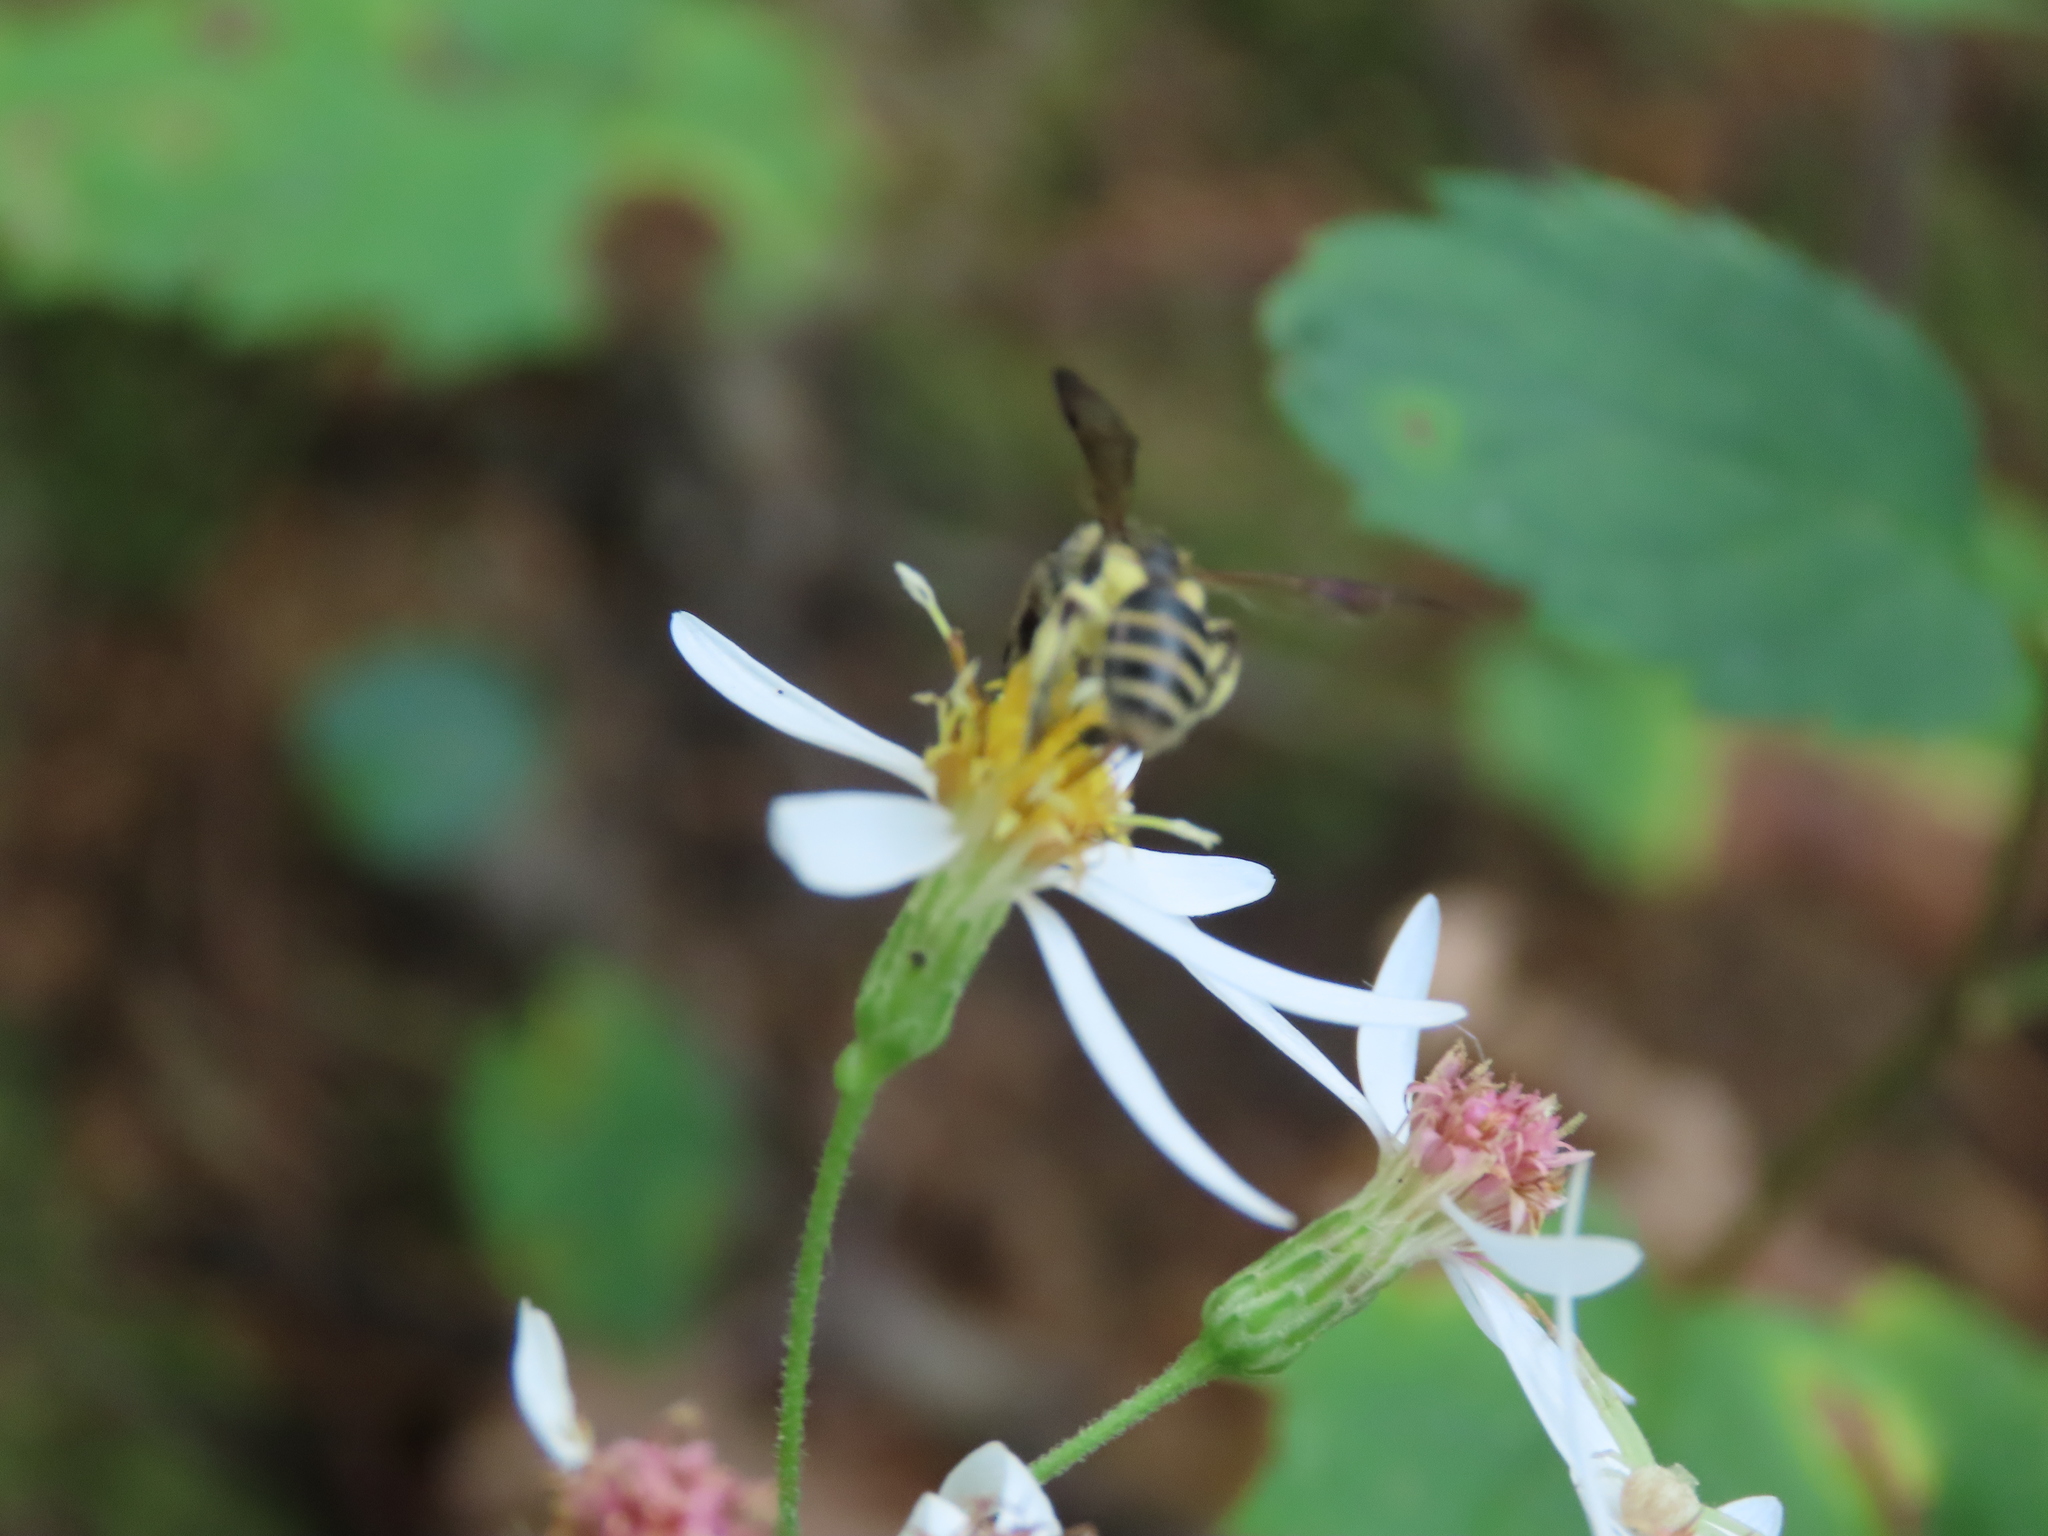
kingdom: Animalia
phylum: Arthropoda
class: Insecta
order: Hymenoptera
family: Andrenidae
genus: Andrena
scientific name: Andrena nubecula
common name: Cloudy-winged mining bee
